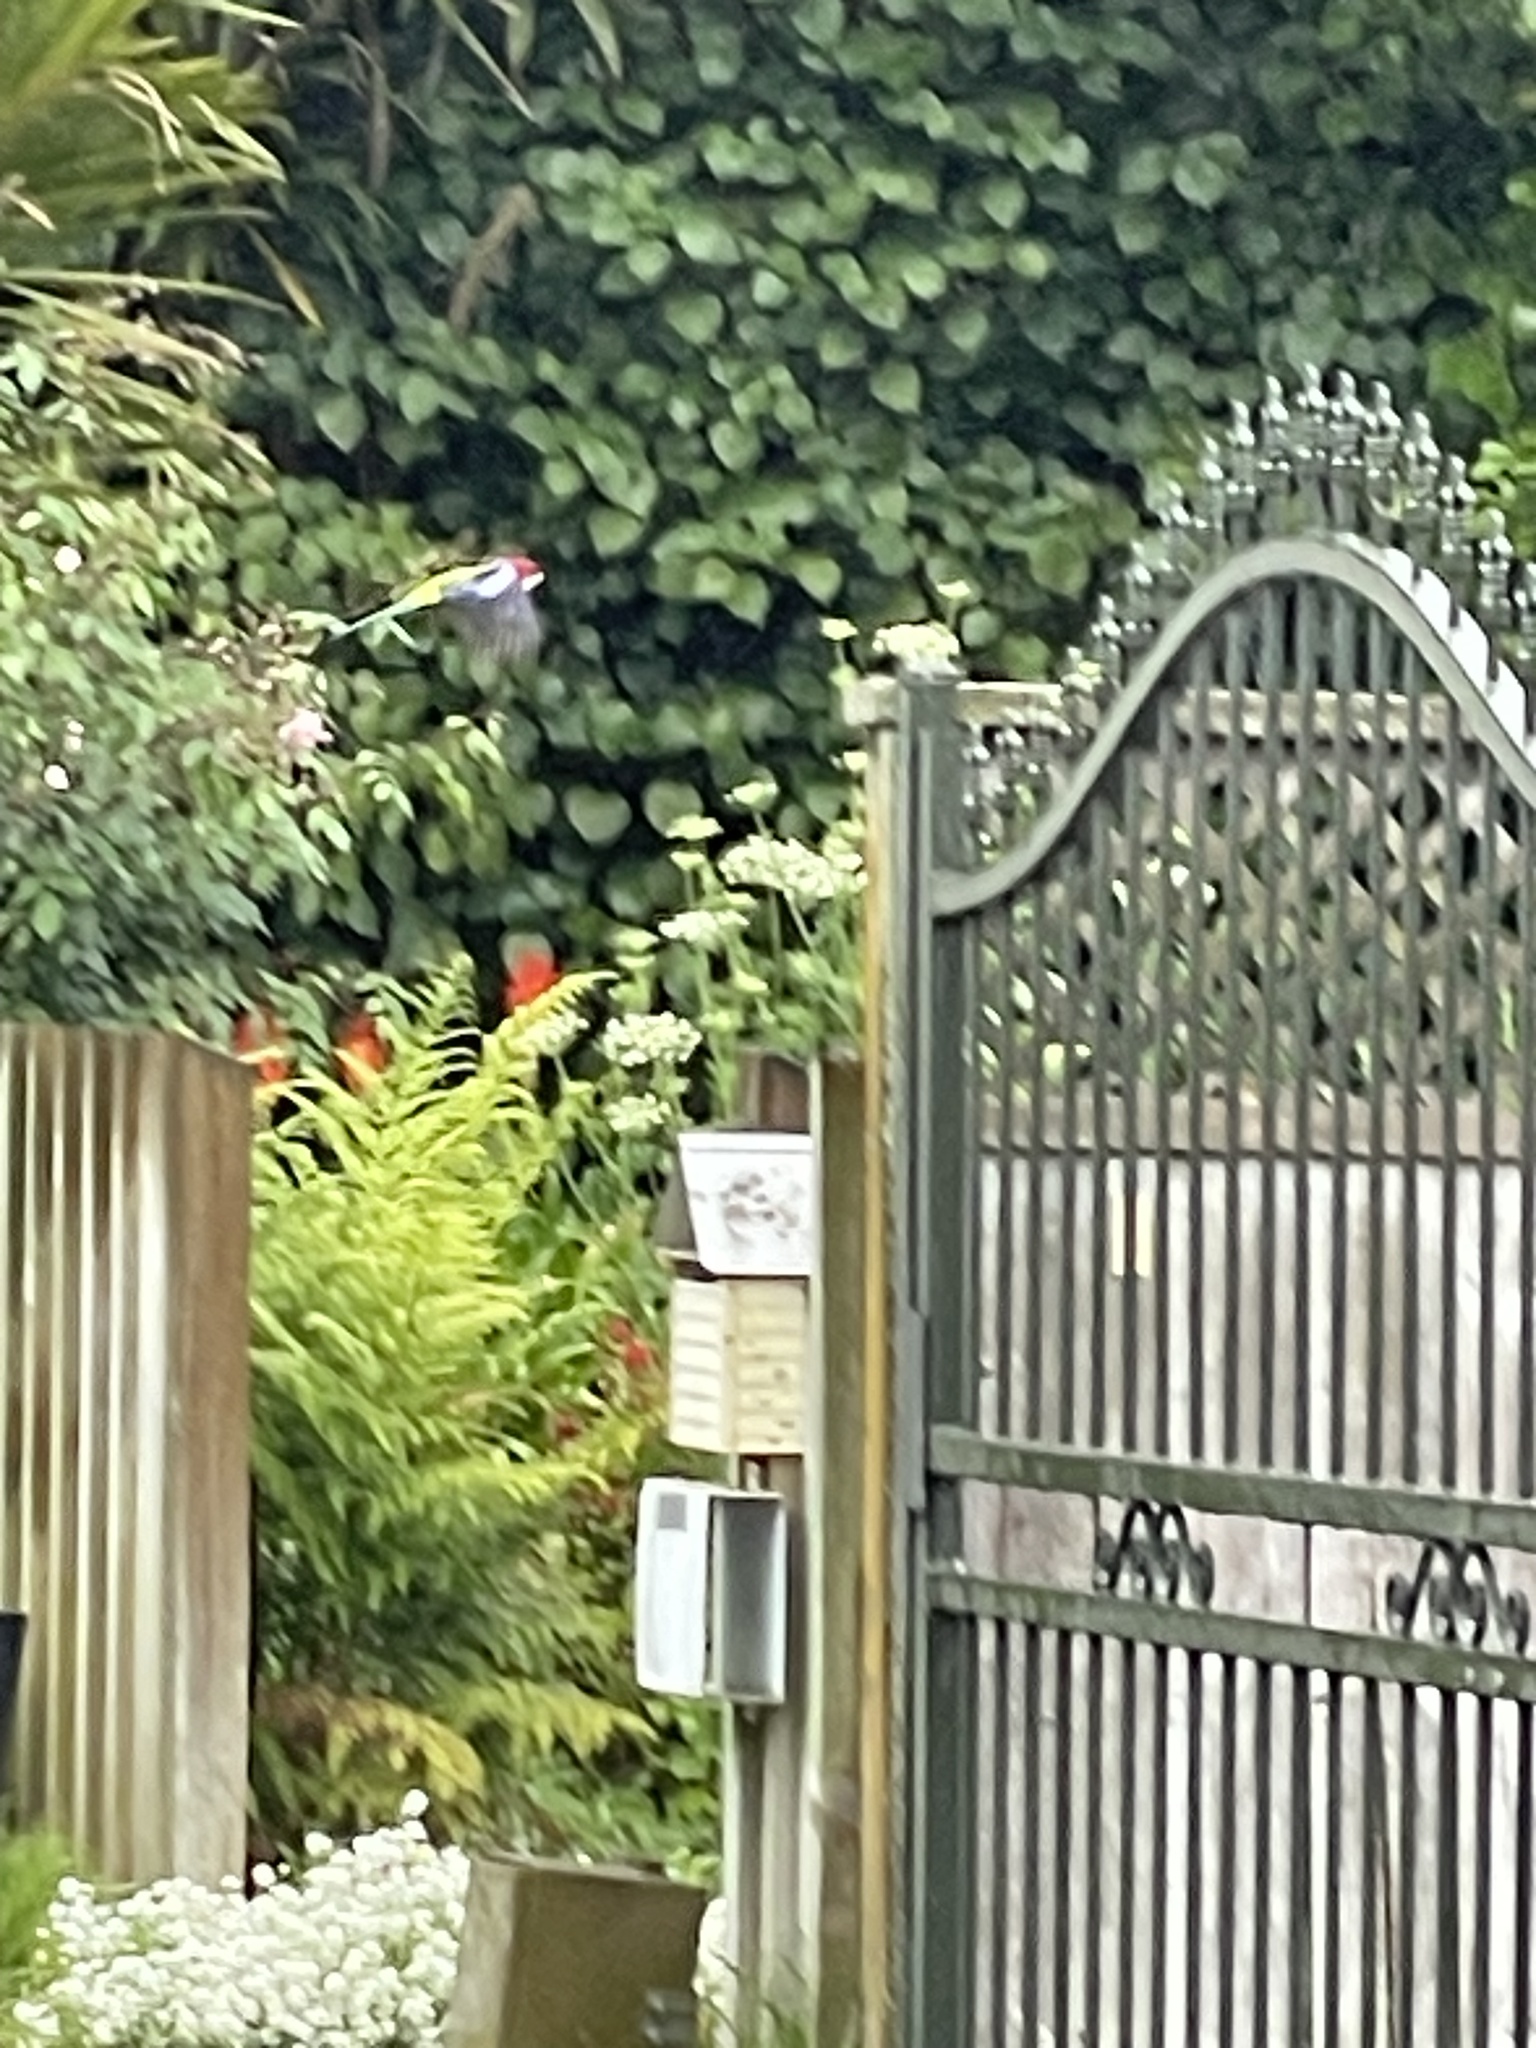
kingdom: Animalia
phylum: Chordata
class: Aves
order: Psittaciformes
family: Psittacidae
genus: Platycercus
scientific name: Platycercus eximius
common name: Eastern rosella
